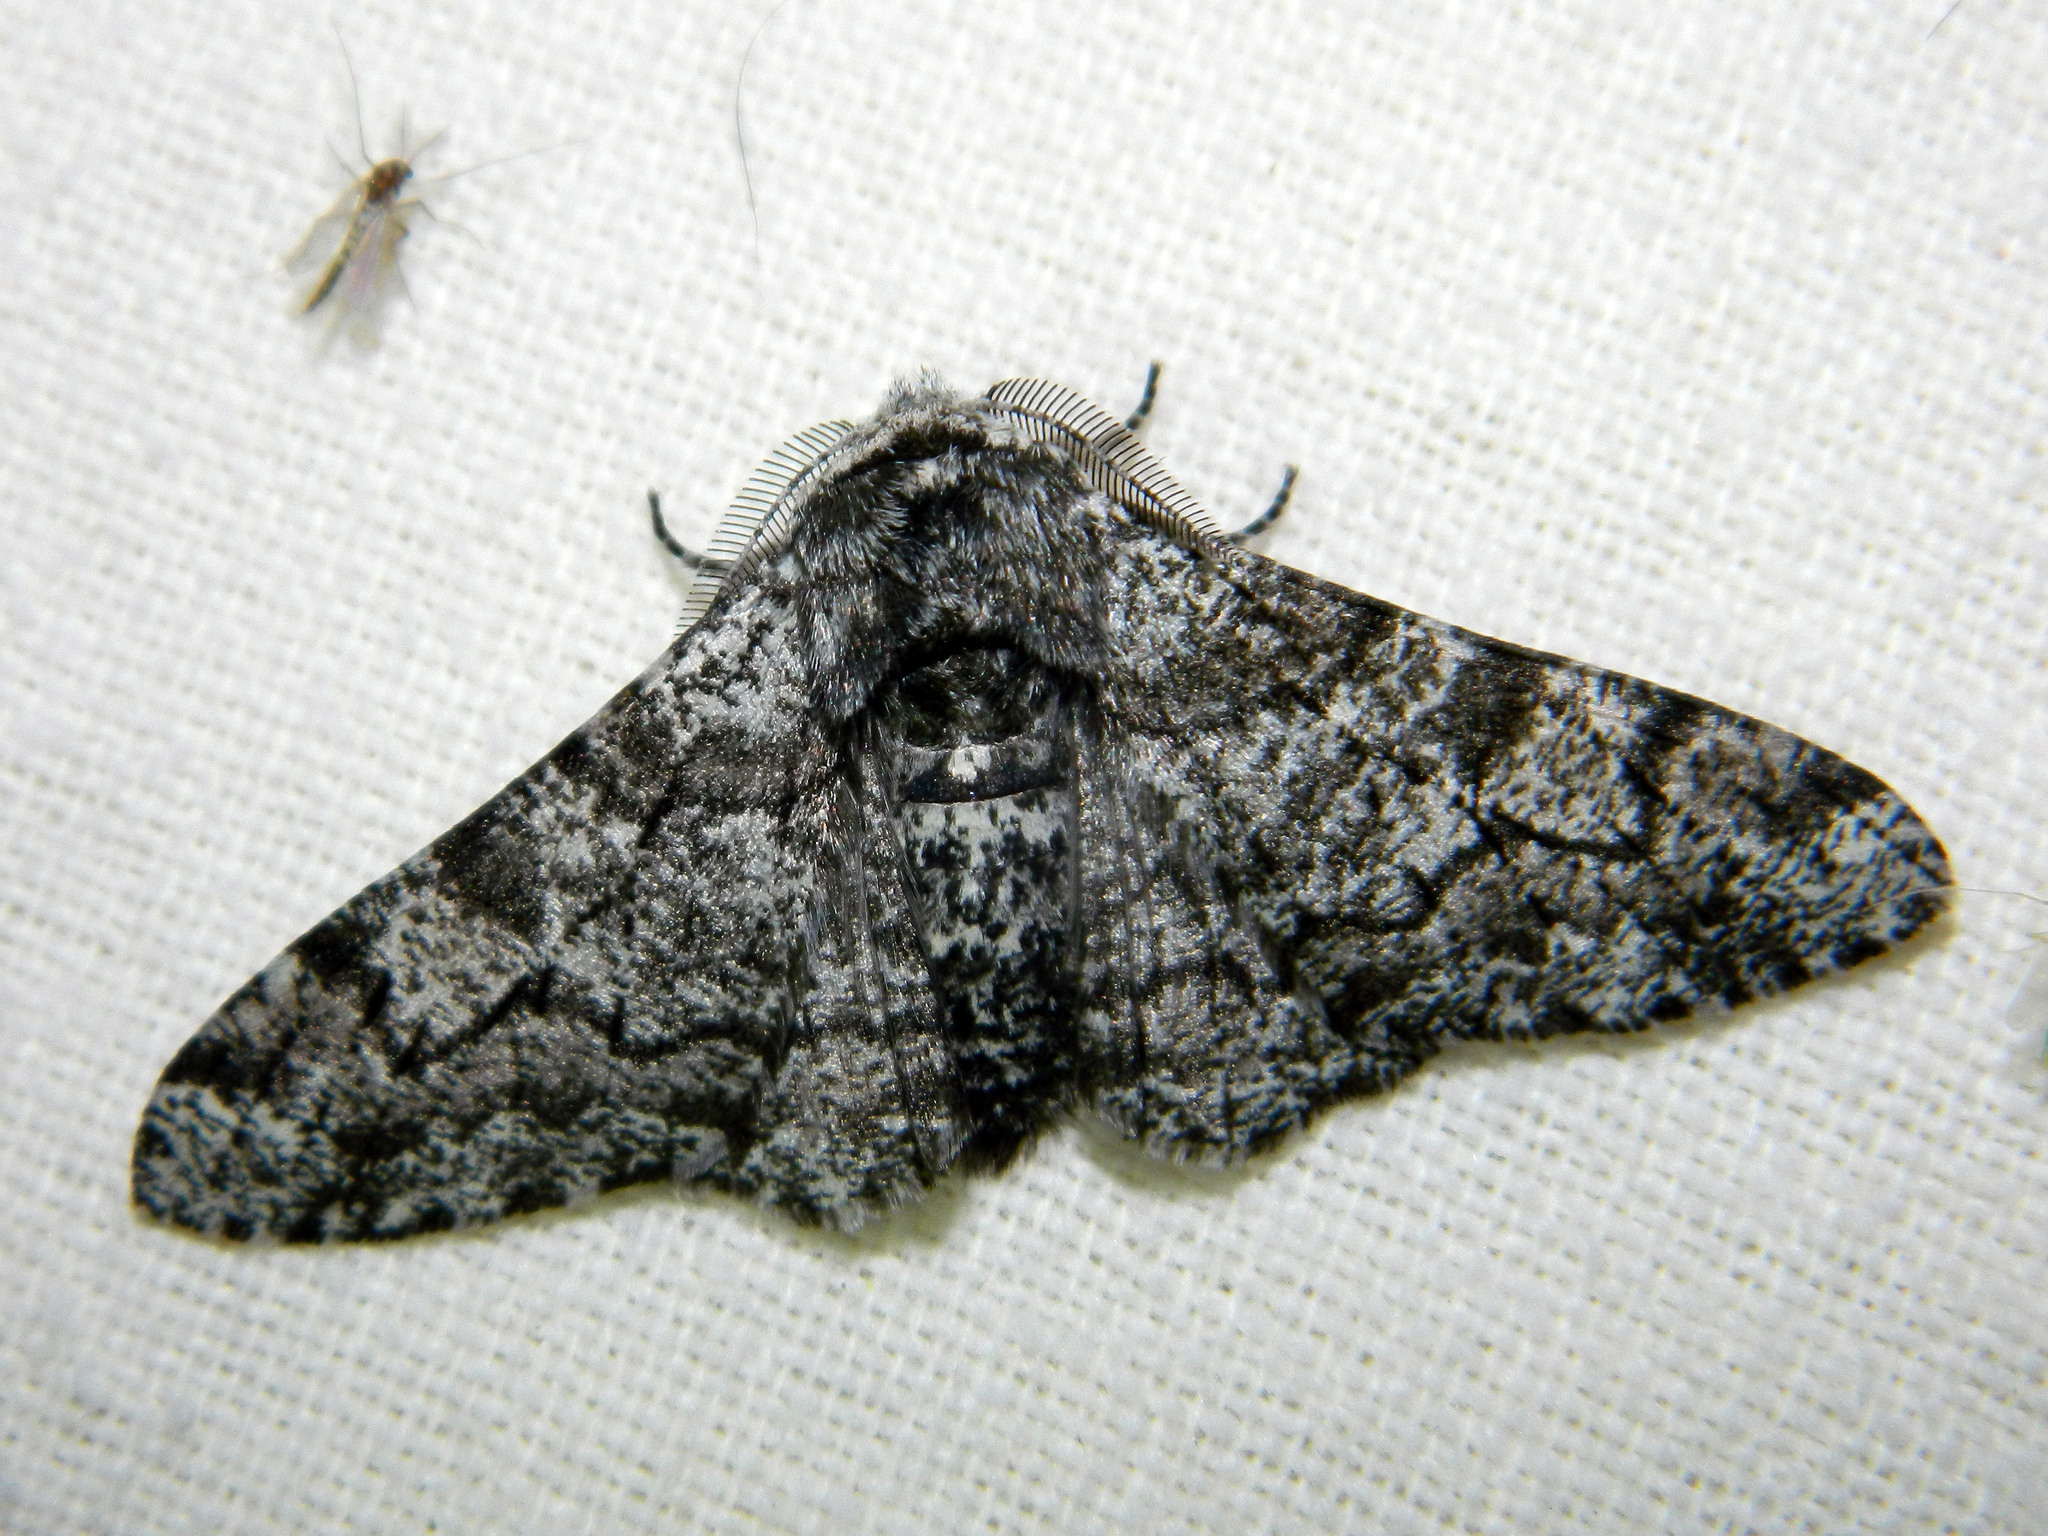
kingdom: Animalia
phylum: Arthropoda
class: Insecta
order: Lepidoptera
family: Geometridae
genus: Biston
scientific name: Biston betularia
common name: Peppered moth
